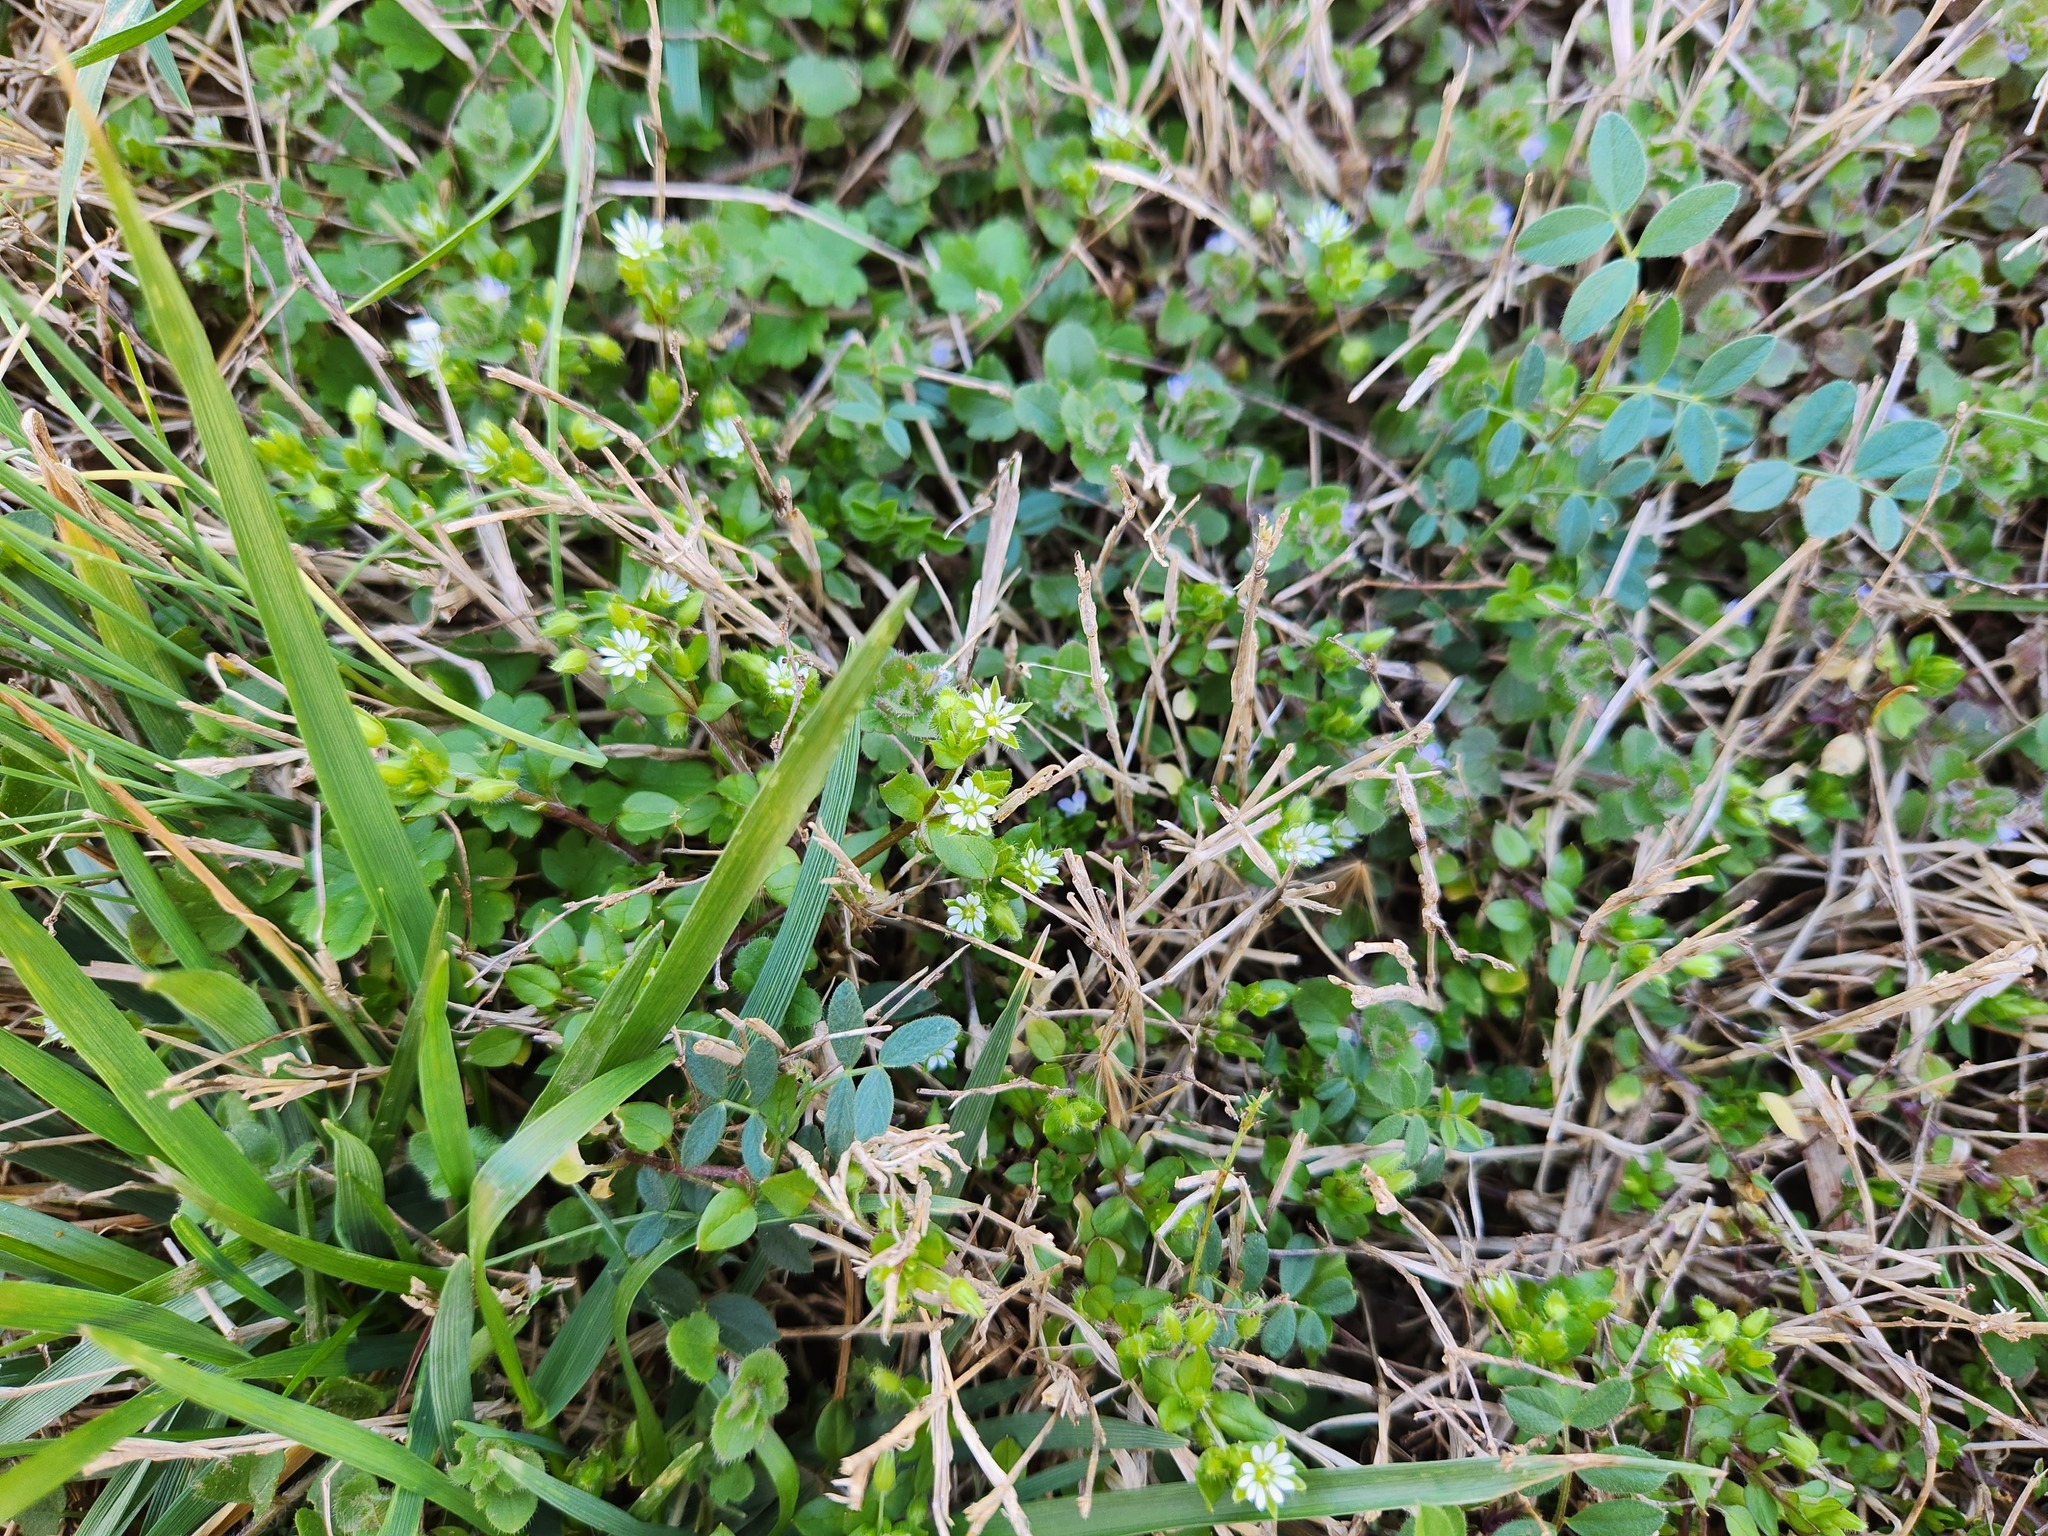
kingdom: Plantae
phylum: Tracheophyta
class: Magnoliopsida
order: Caryophyllales
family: Caryophyllaceae
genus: Stellaria
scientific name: Stellaria media
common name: Common chickweed
